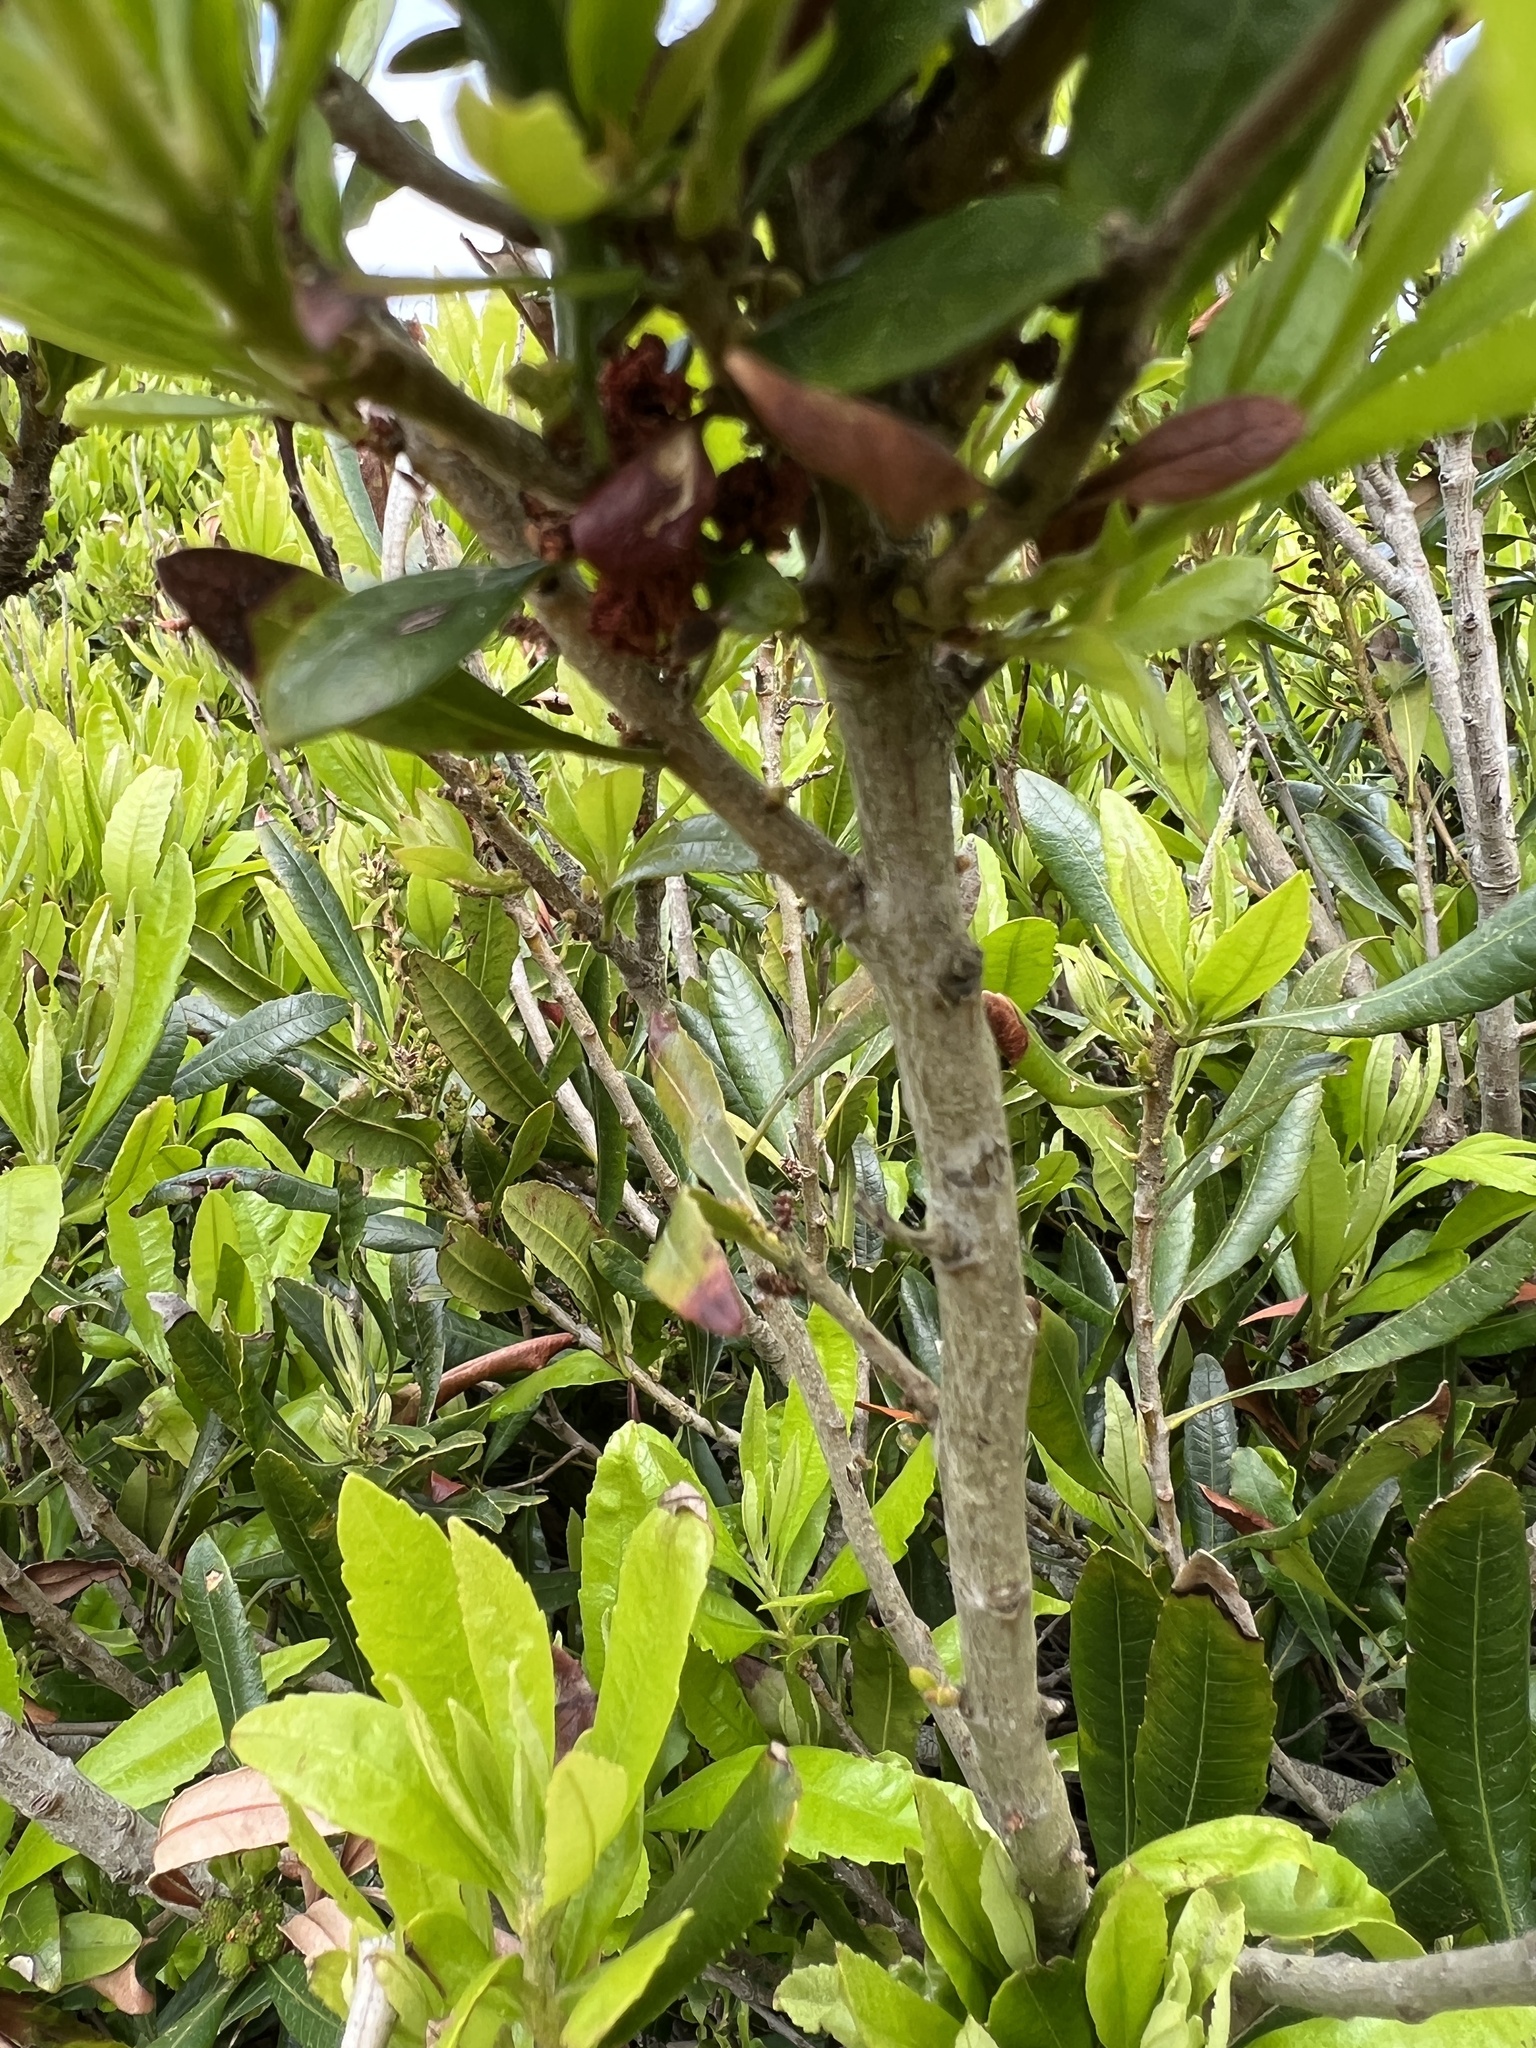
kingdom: Plantae
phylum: Tracheophyta
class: Magnoliopsida
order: Fagales
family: Myricaceae
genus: Morella
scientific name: Morella californica
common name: California wax-myrtle
